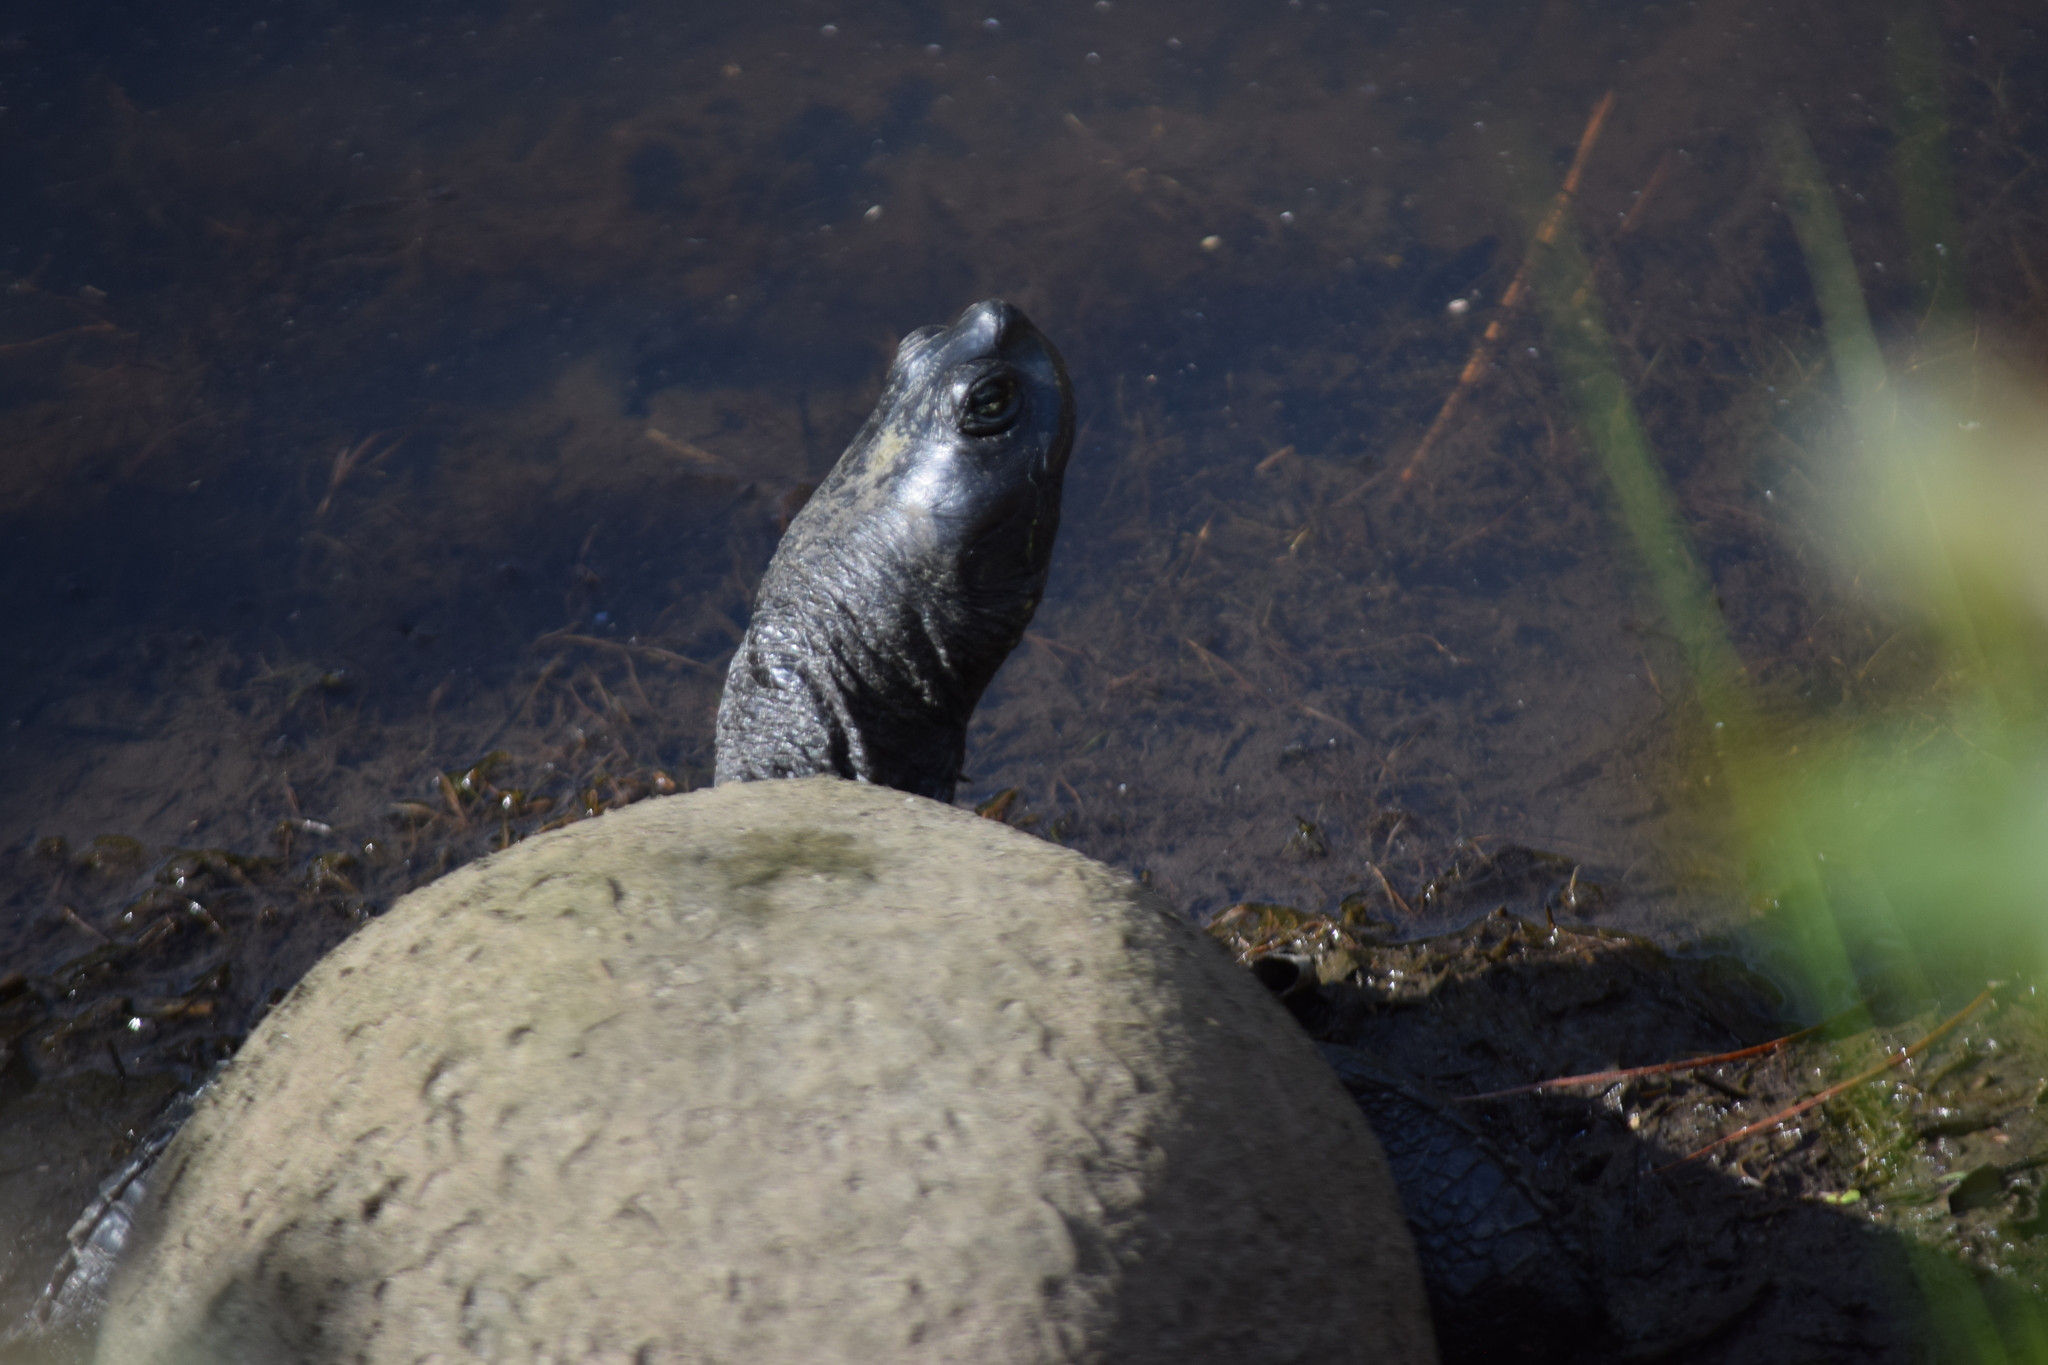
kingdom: Animalia
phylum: Chordata
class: Testudines
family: Emydidae
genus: Pseudemys
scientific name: Pseudemys rubriventris
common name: American red-bellied turtle
